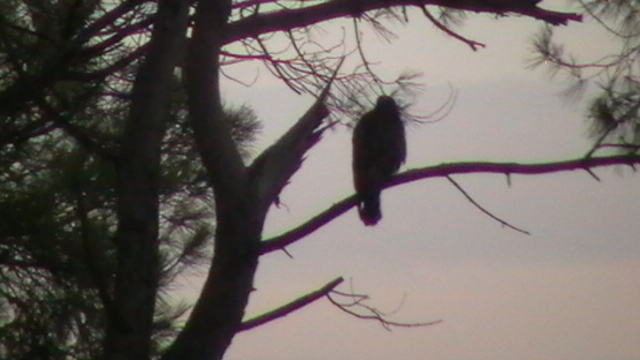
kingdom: Animalia
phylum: Chordata
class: Aves
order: Accipitriformes
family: Accipitridae
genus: Buteo
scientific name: Buteo buteo
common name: Common buzzard
